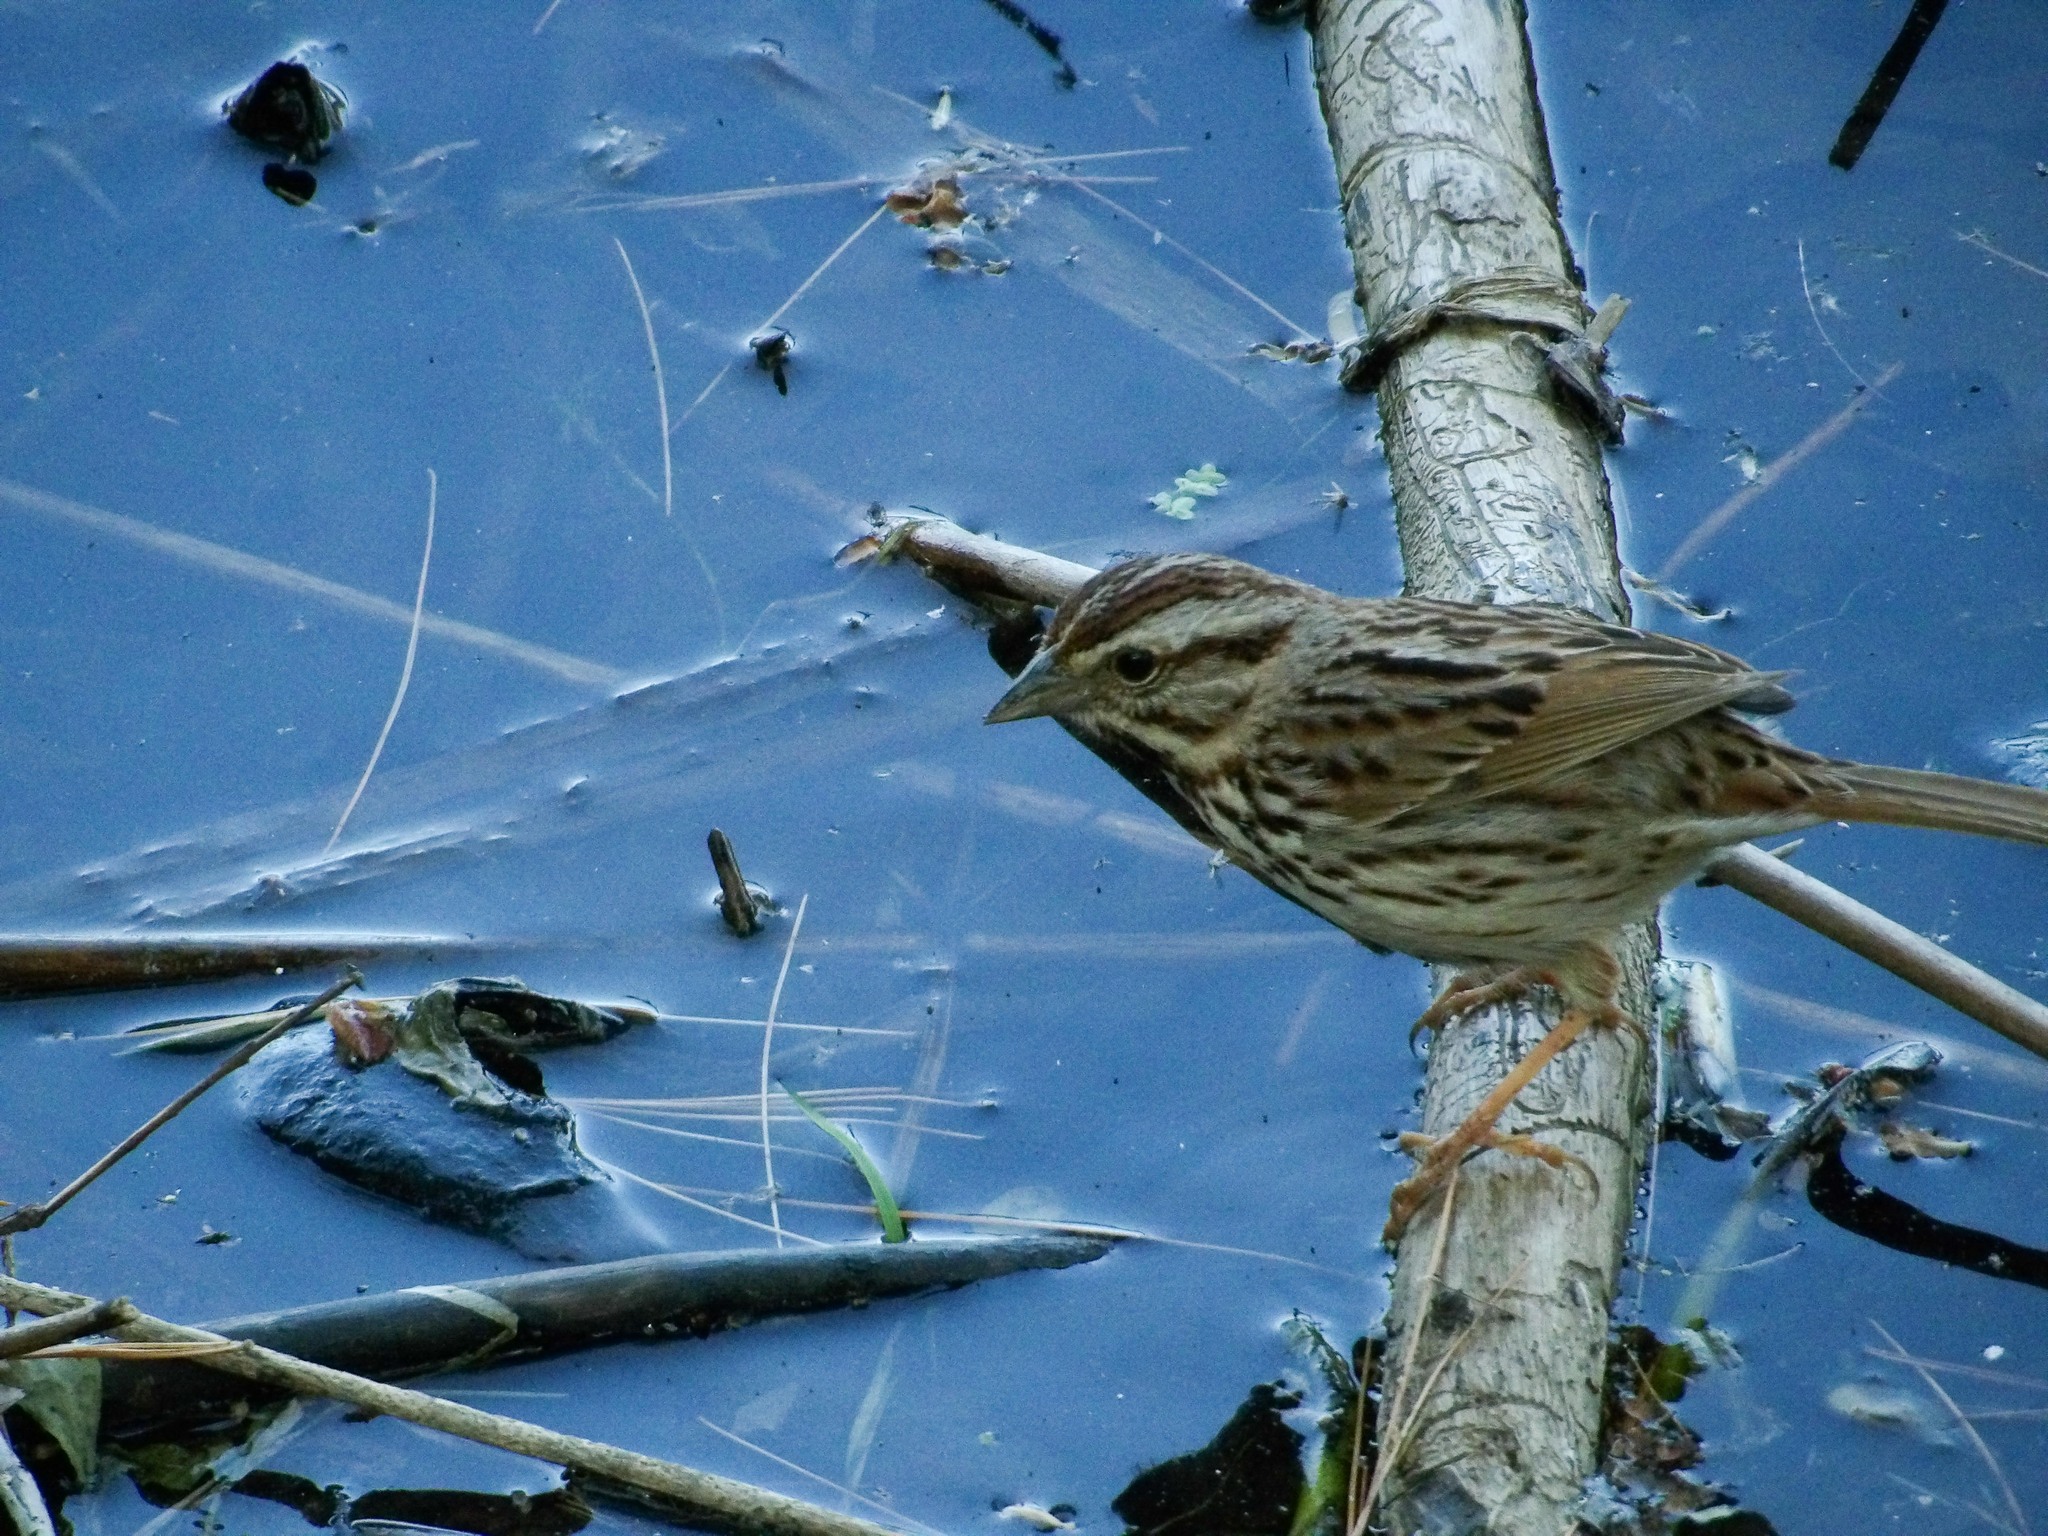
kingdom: Animalia
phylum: Chordata
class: Aves
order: Passeriformes
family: Passerellidae
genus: Melospiza
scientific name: Melospiza melodia
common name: Song sparrow
